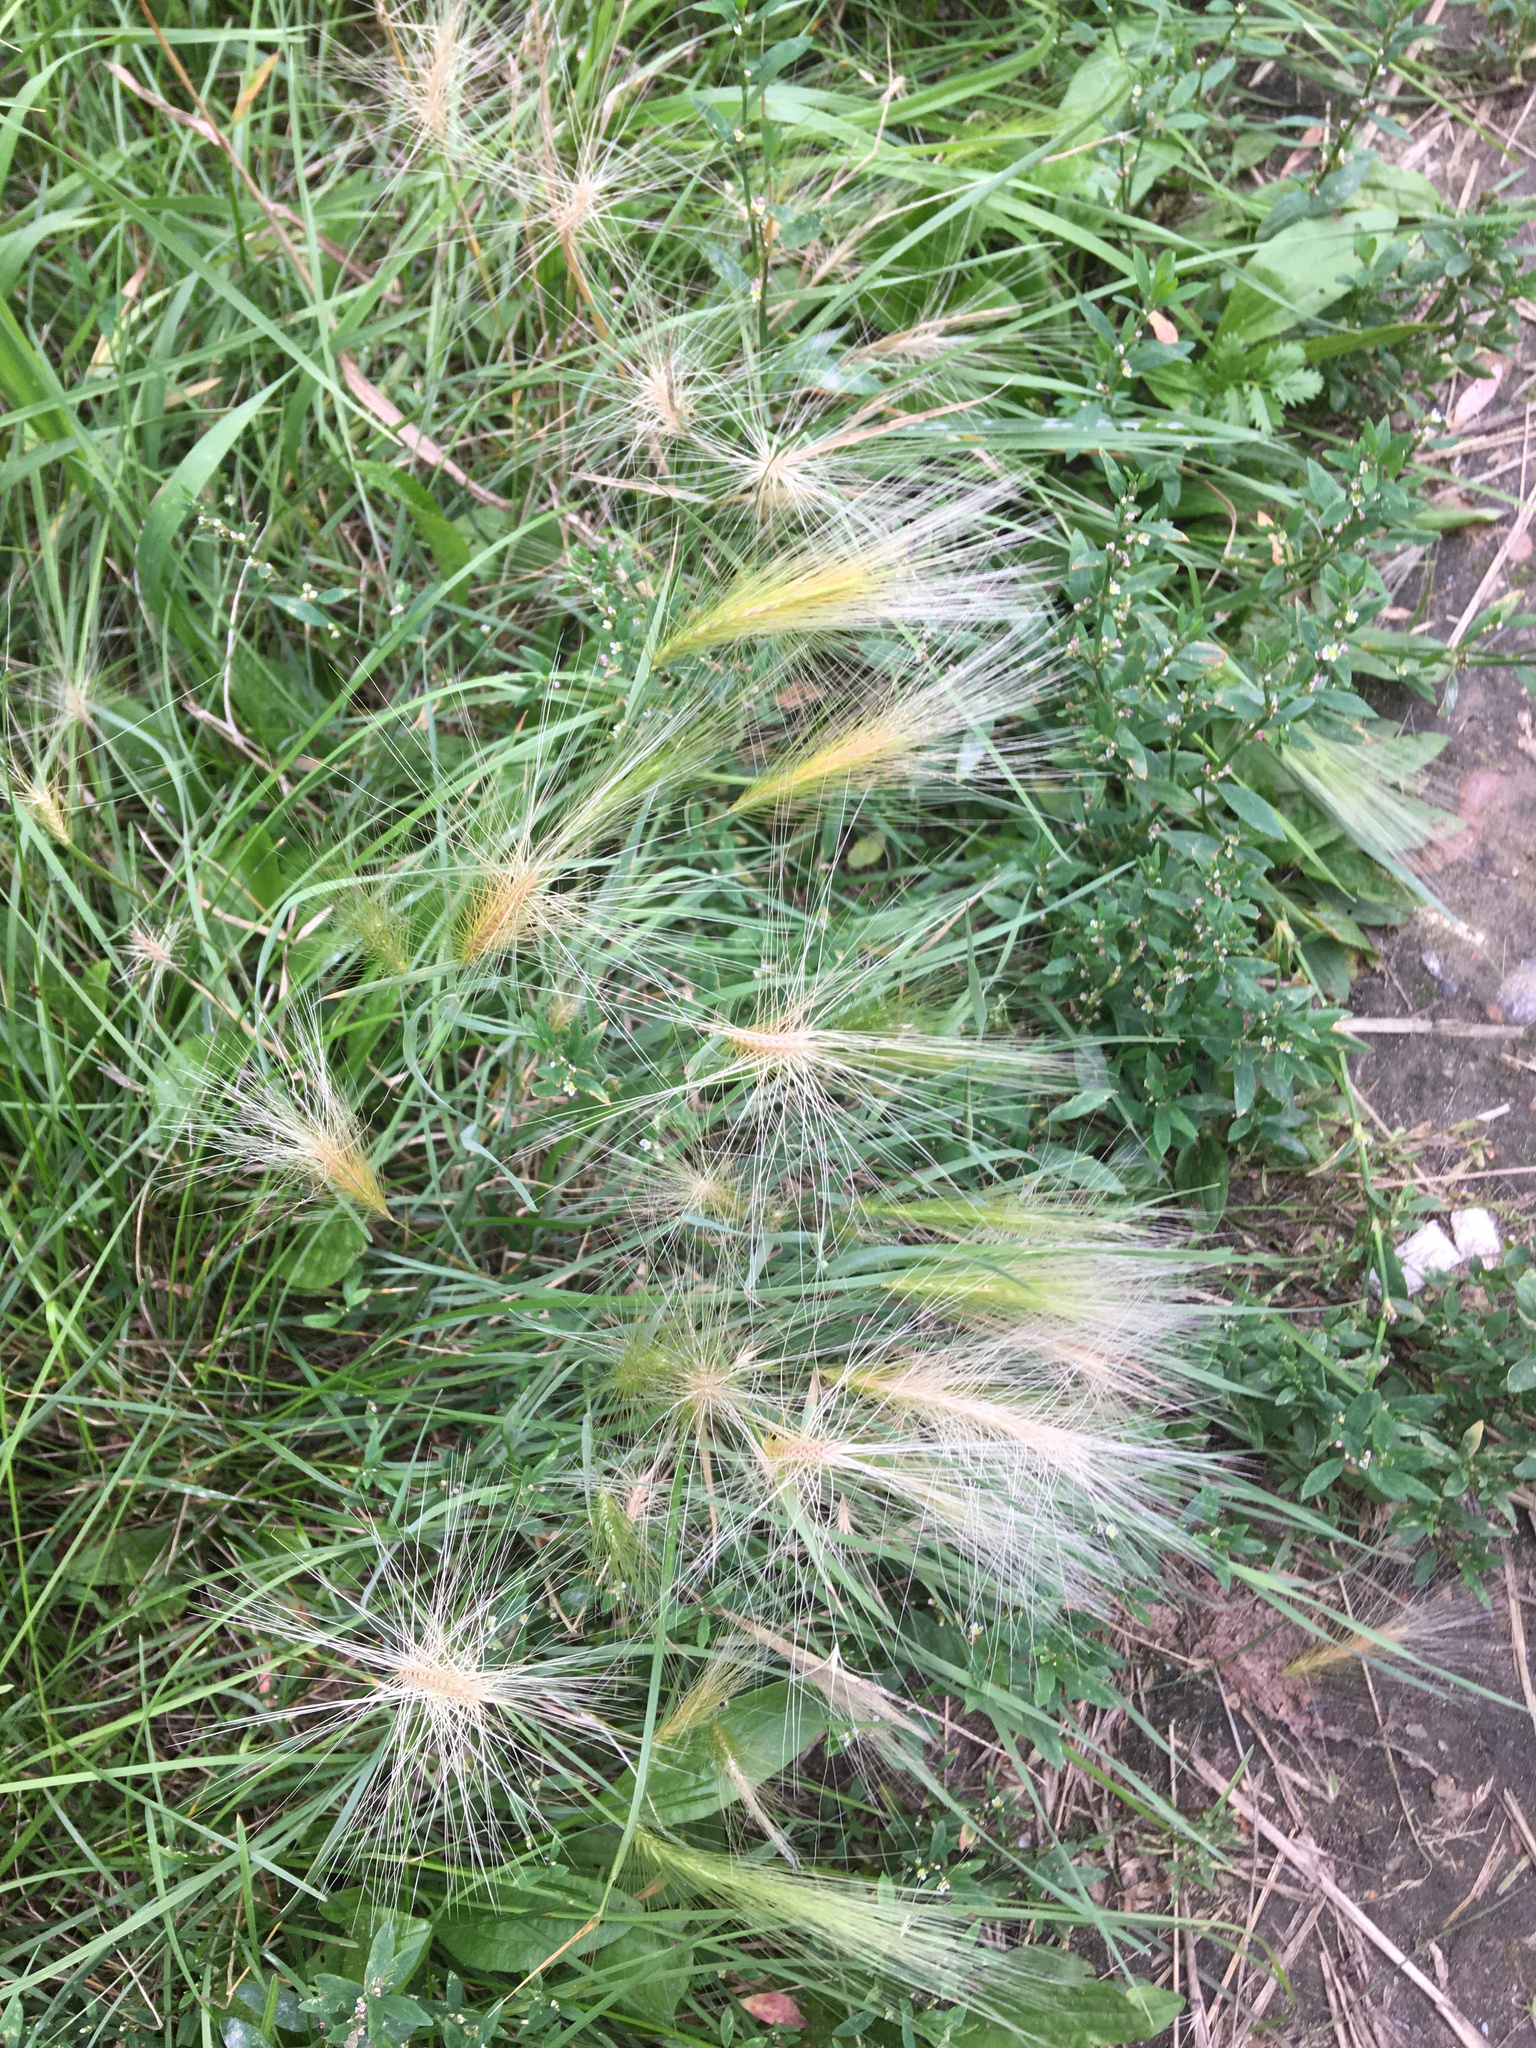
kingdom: Plantae
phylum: Tracheophyta
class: Liliopsida
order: Poales
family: Poaceae
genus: Hordeum
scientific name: Hordeum jubatum
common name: Foxtail barley
